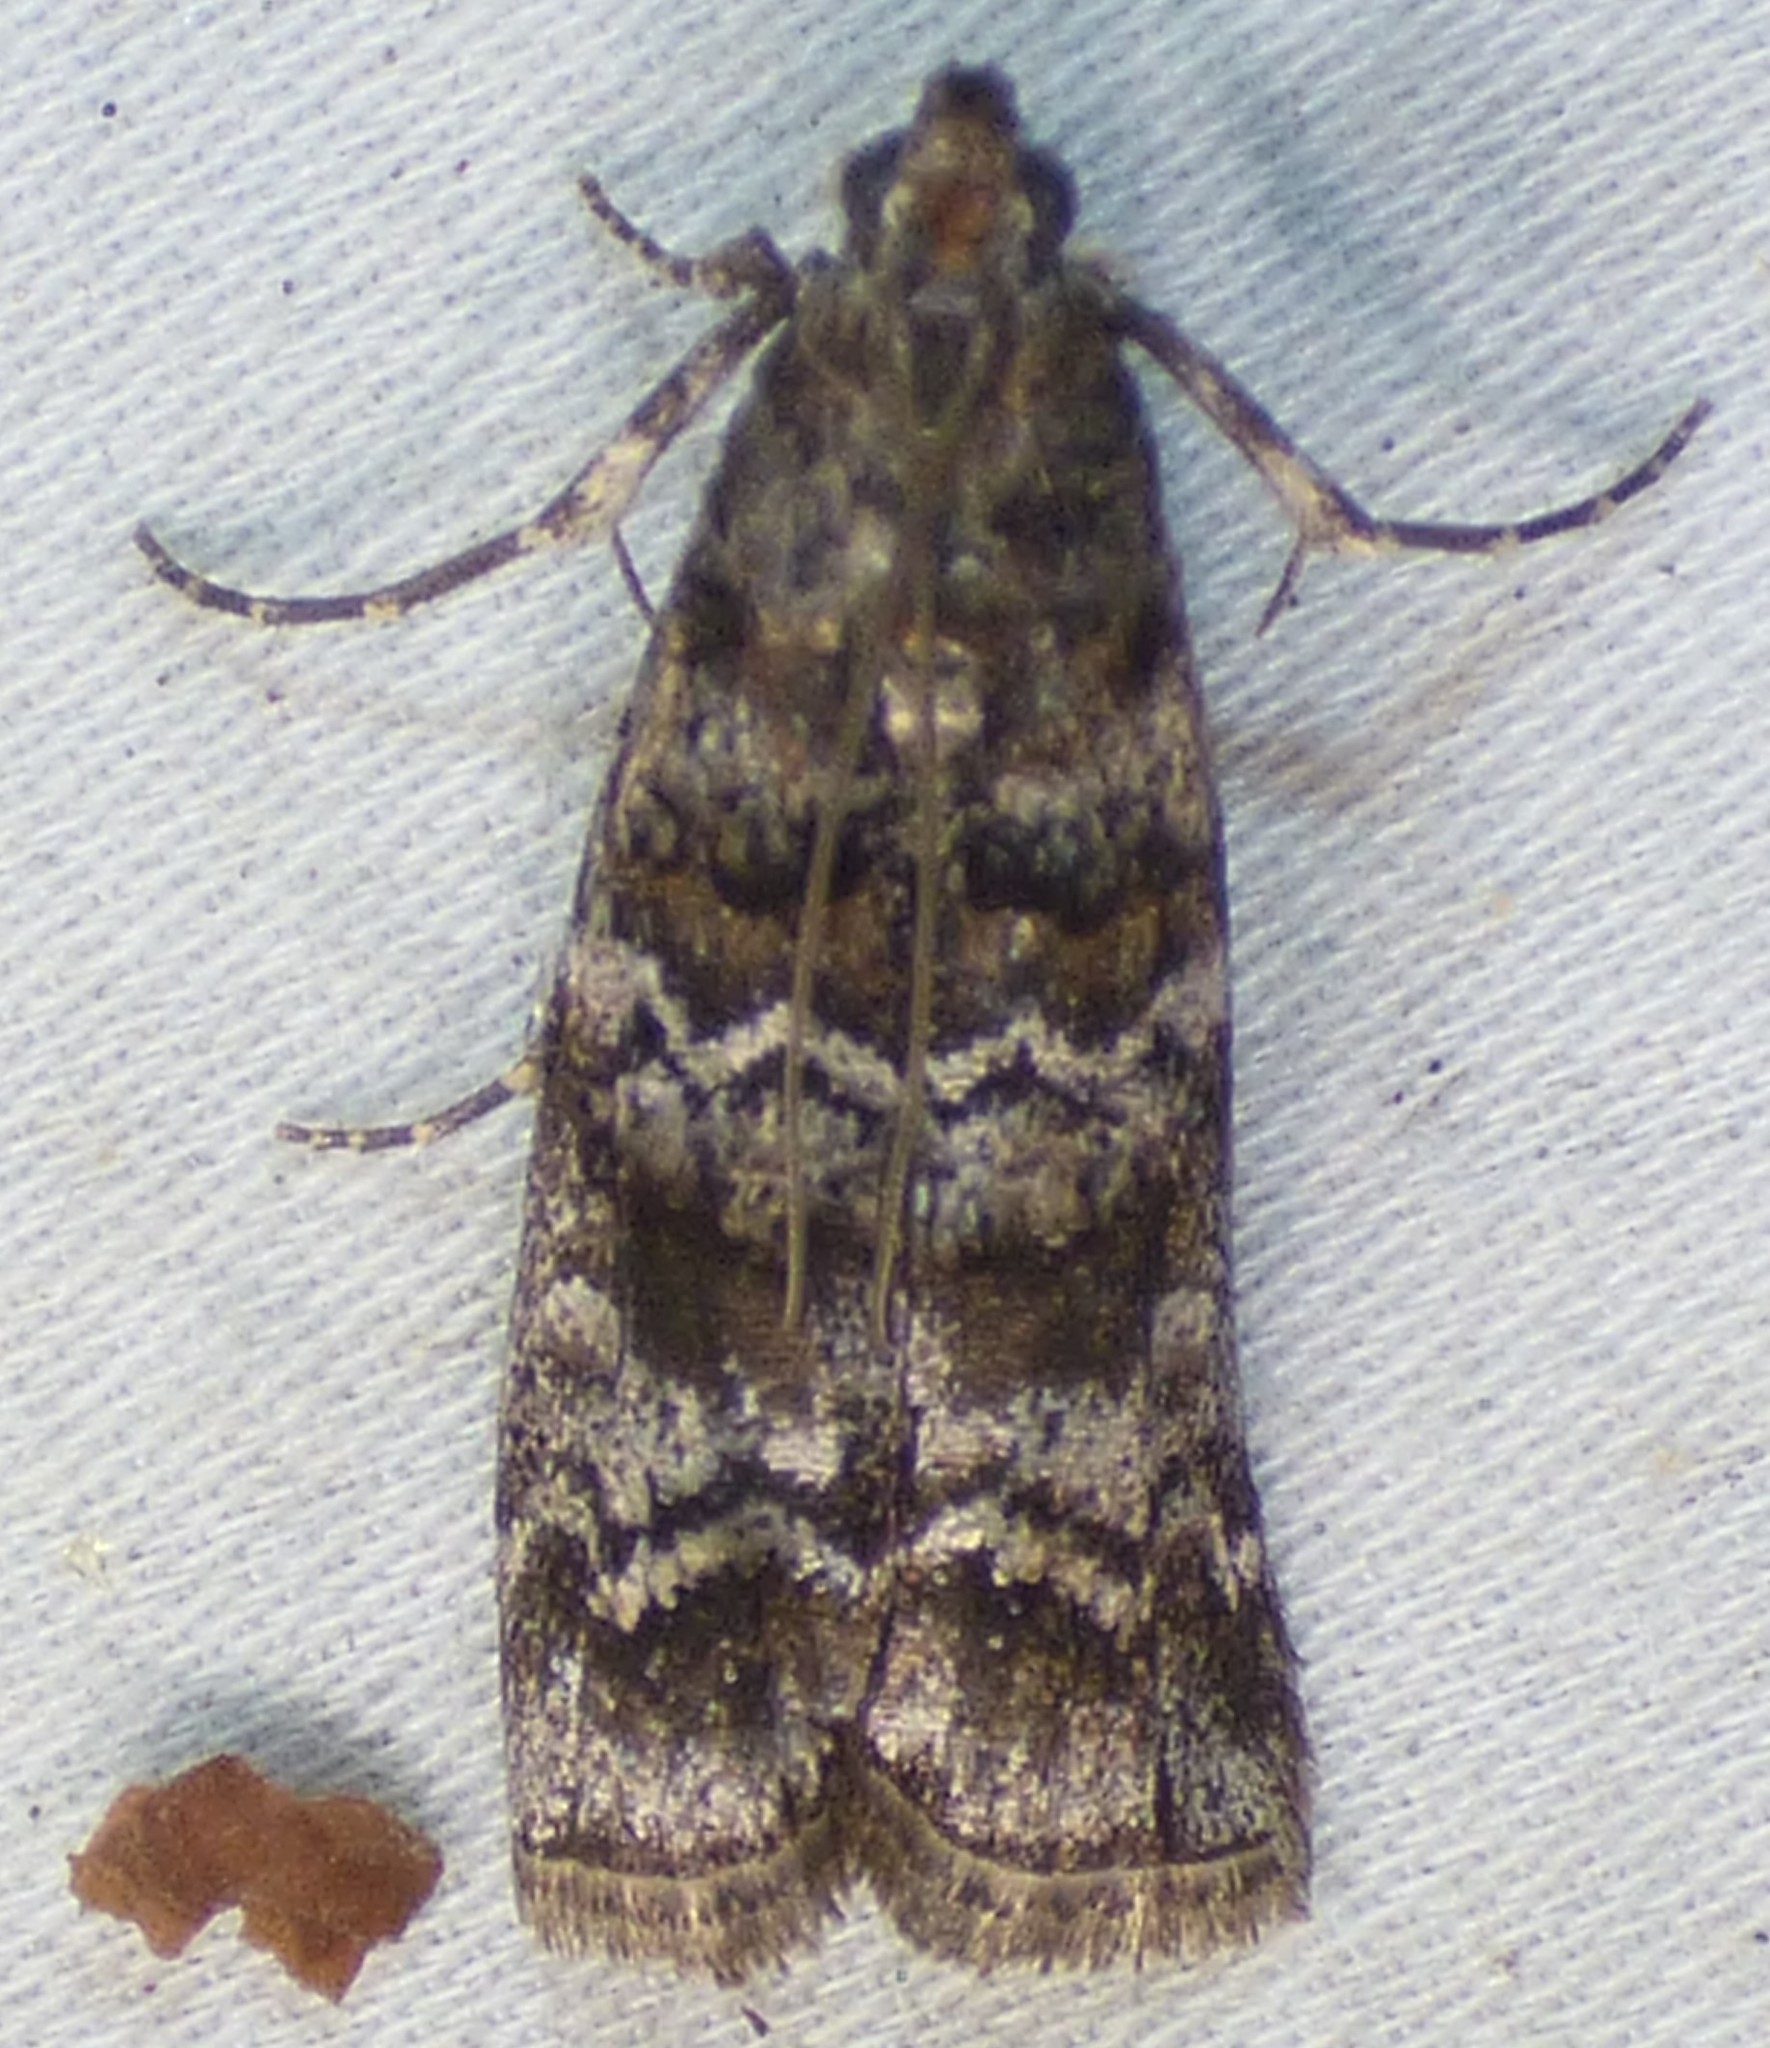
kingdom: Animalia
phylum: Arthropoda
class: Insecta
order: Lepidoptera
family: Pyralidae
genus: Dioryctria
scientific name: Dioryctria amatella
